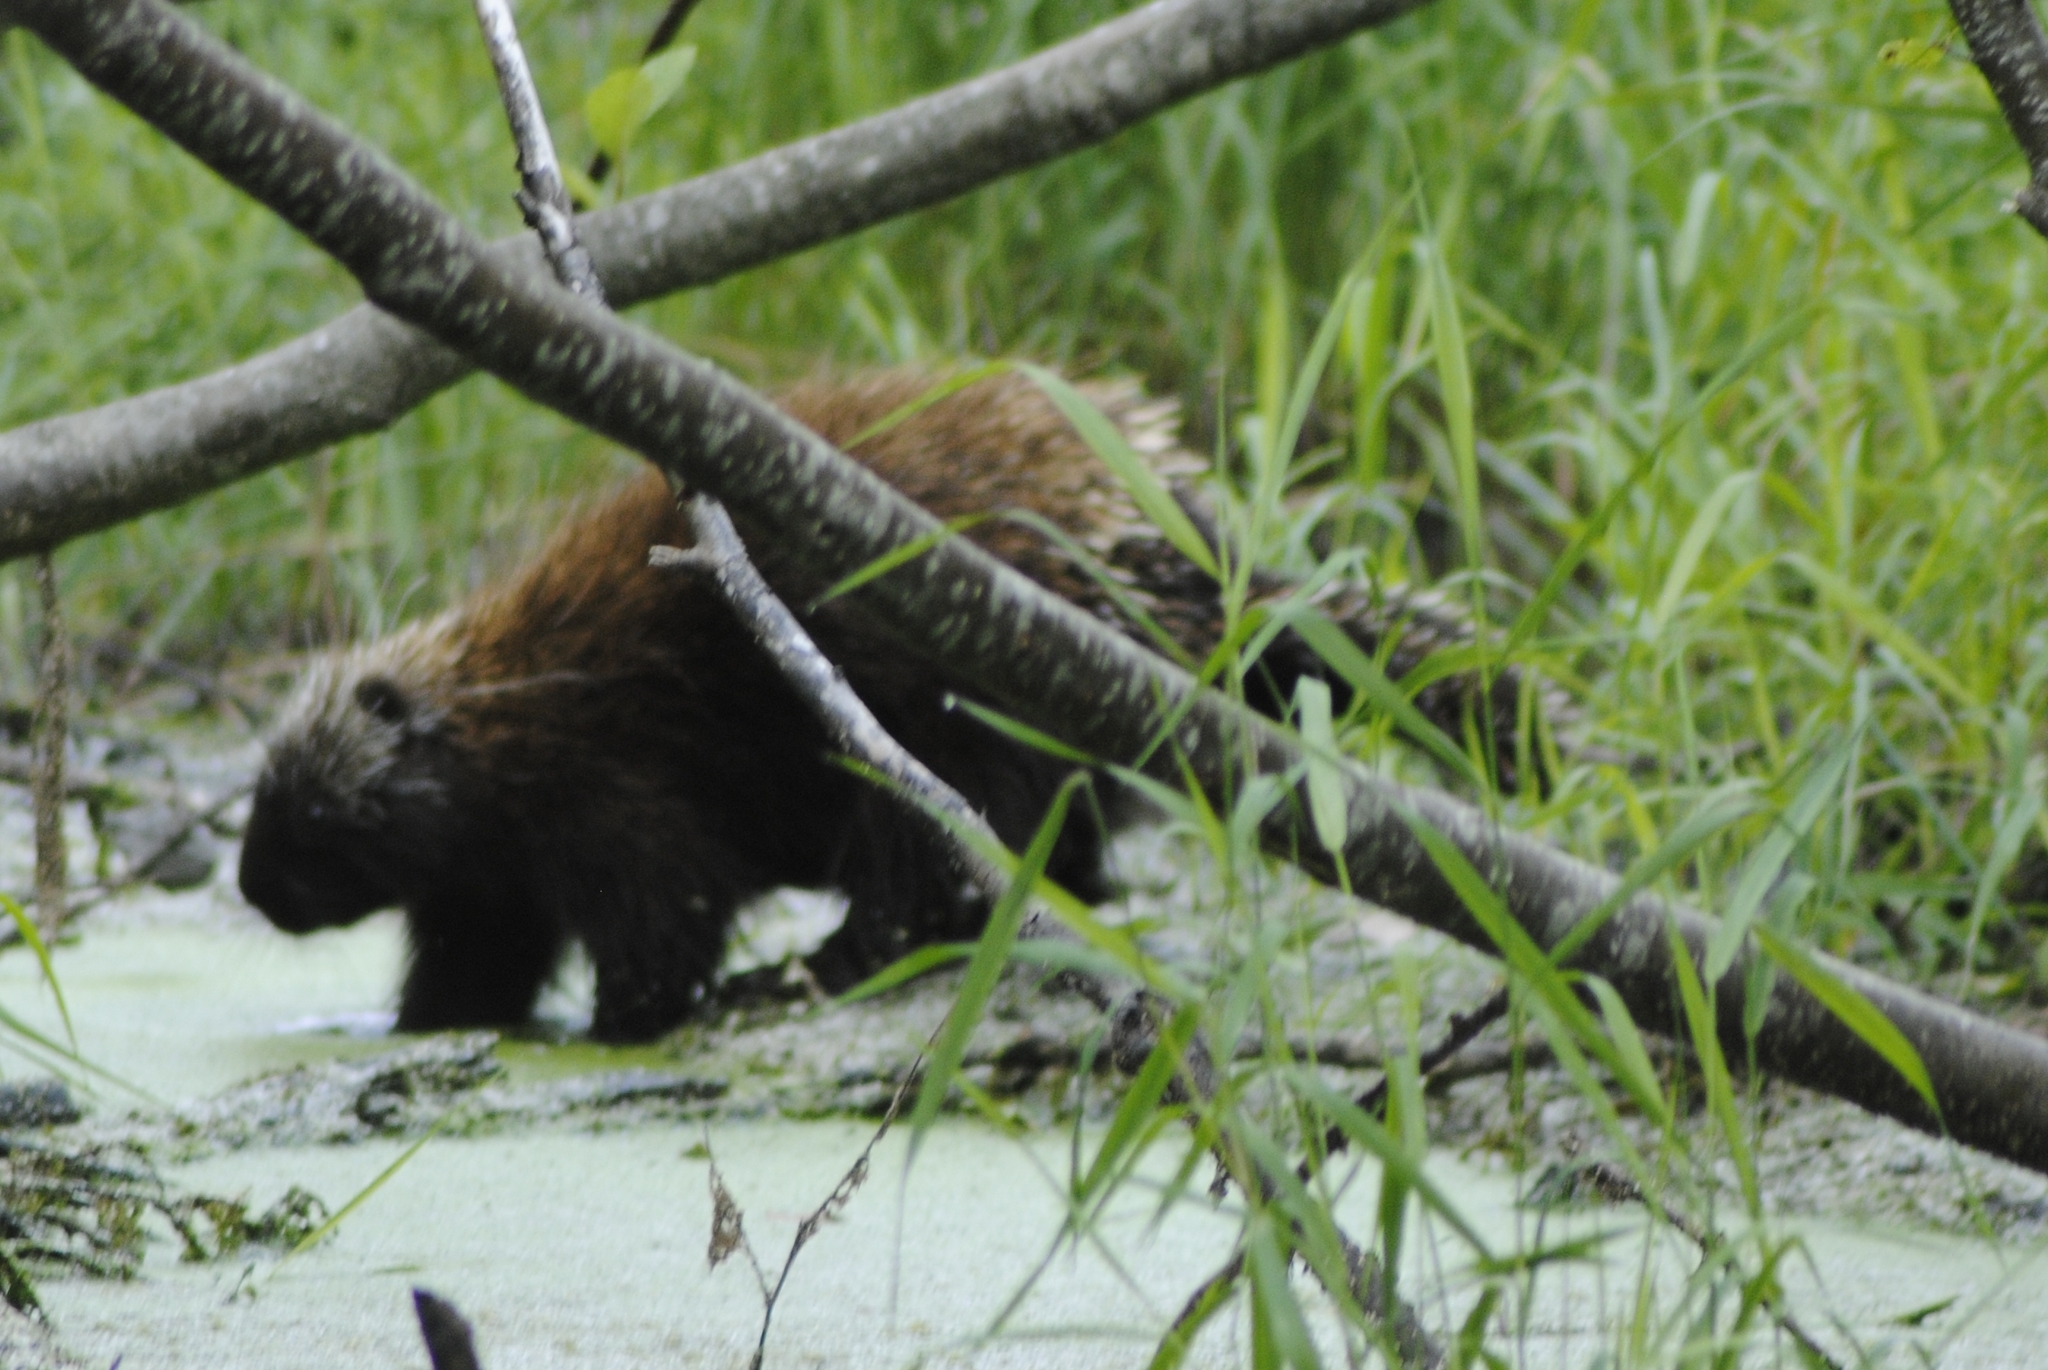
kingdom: Animalia
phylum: Chordata
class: Mammalia
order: Rodentia
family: Erethizontidae
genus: Erethizon
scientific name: Erethizon dorsatus
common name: North american porcupine
